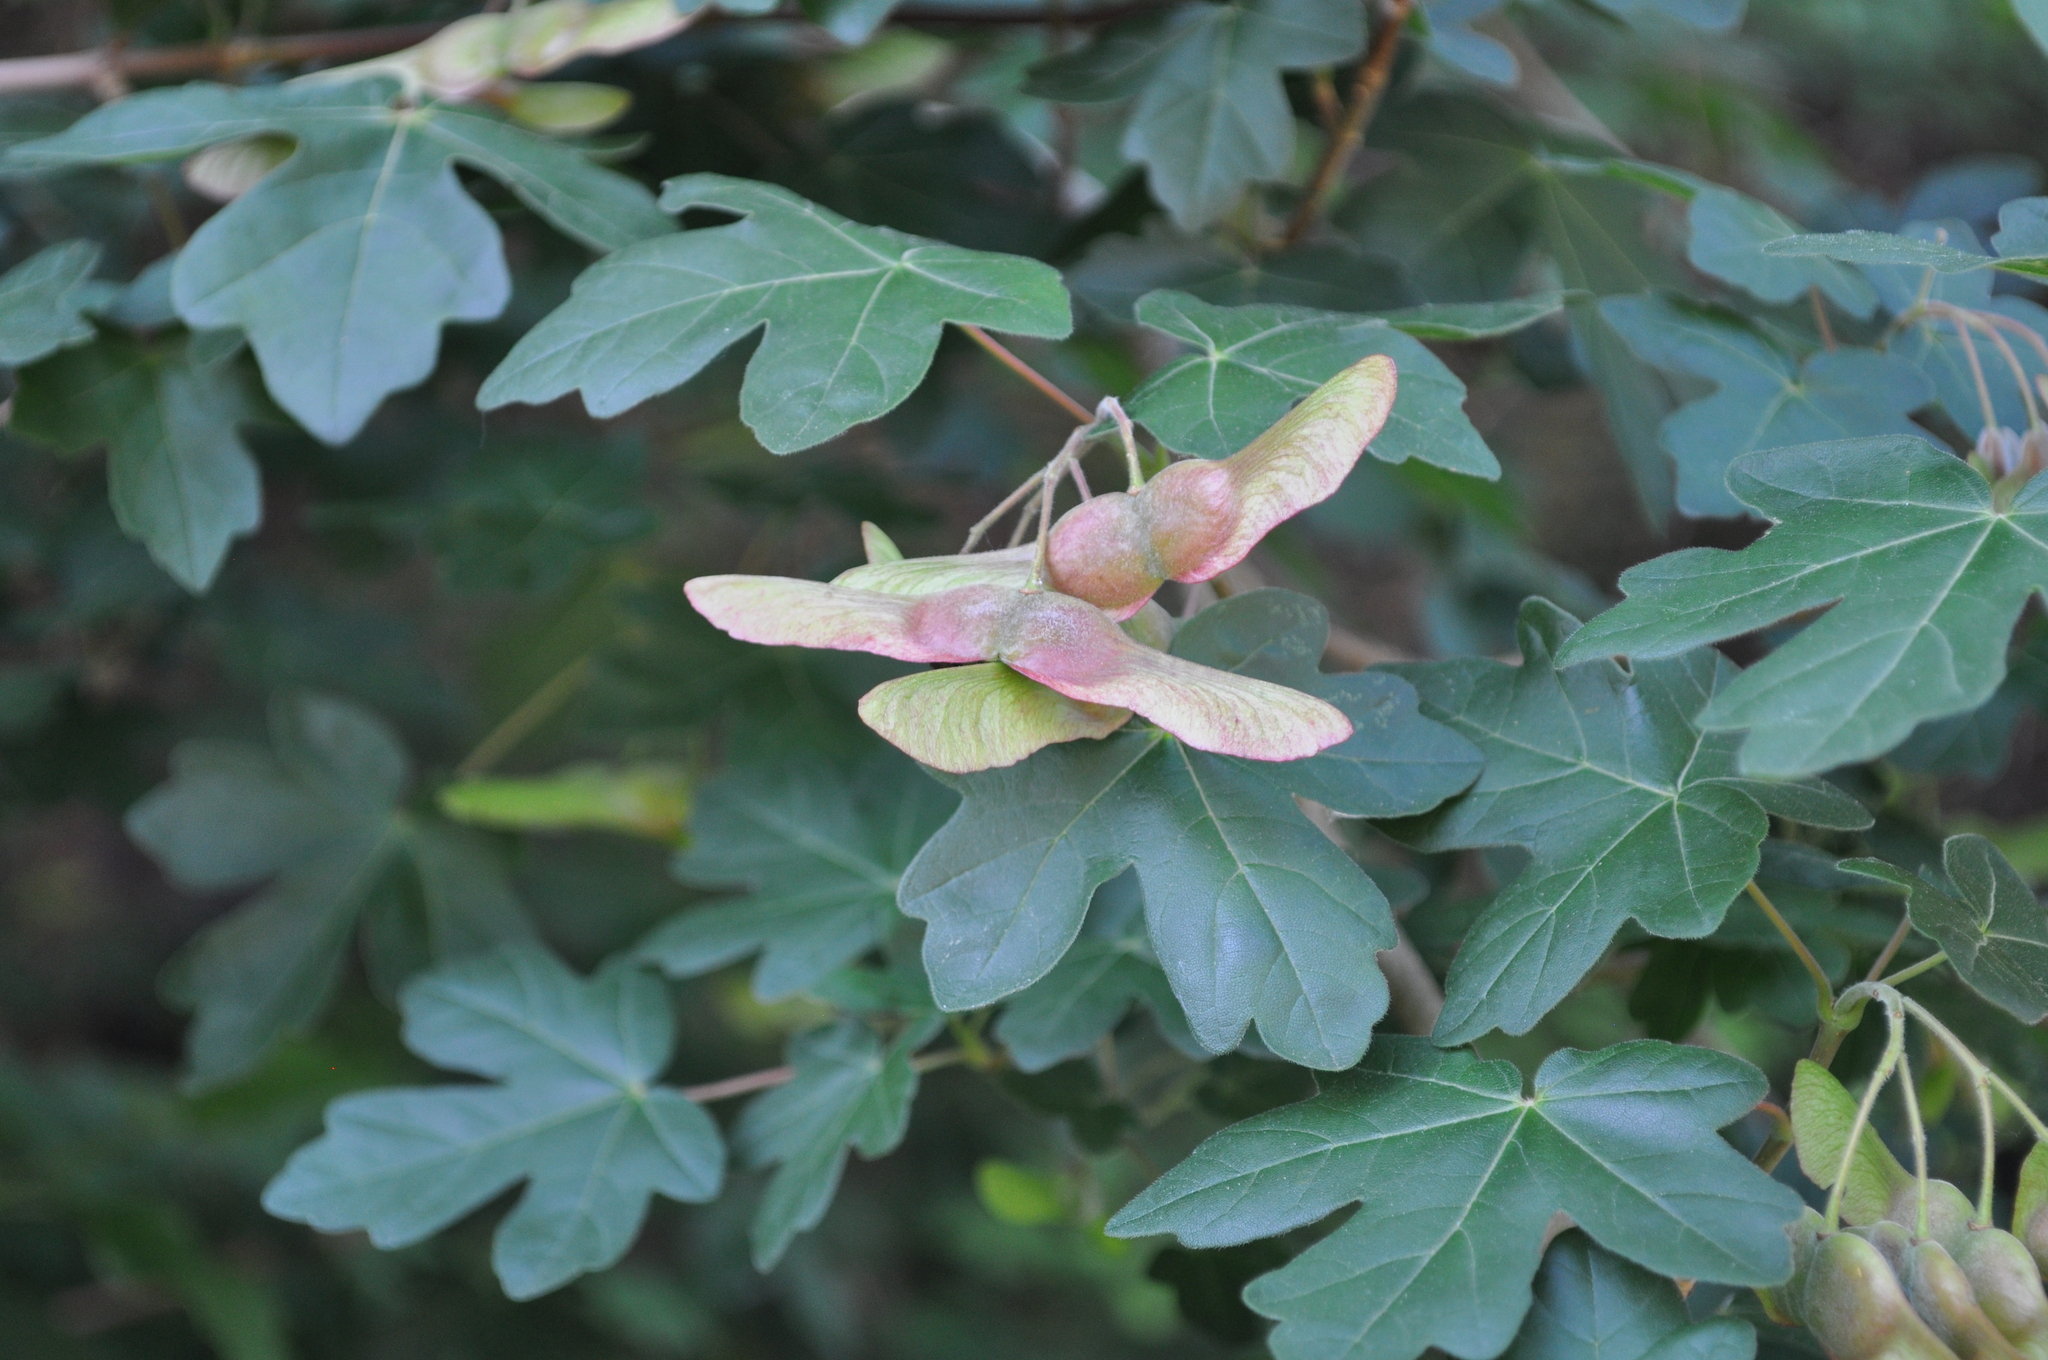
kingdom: Plantae
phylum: Tracheophyta
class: Magnoliopsida
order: Sapindales
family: Sapindaceae
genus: Acer
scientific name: Acer campestre
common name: Field maple
